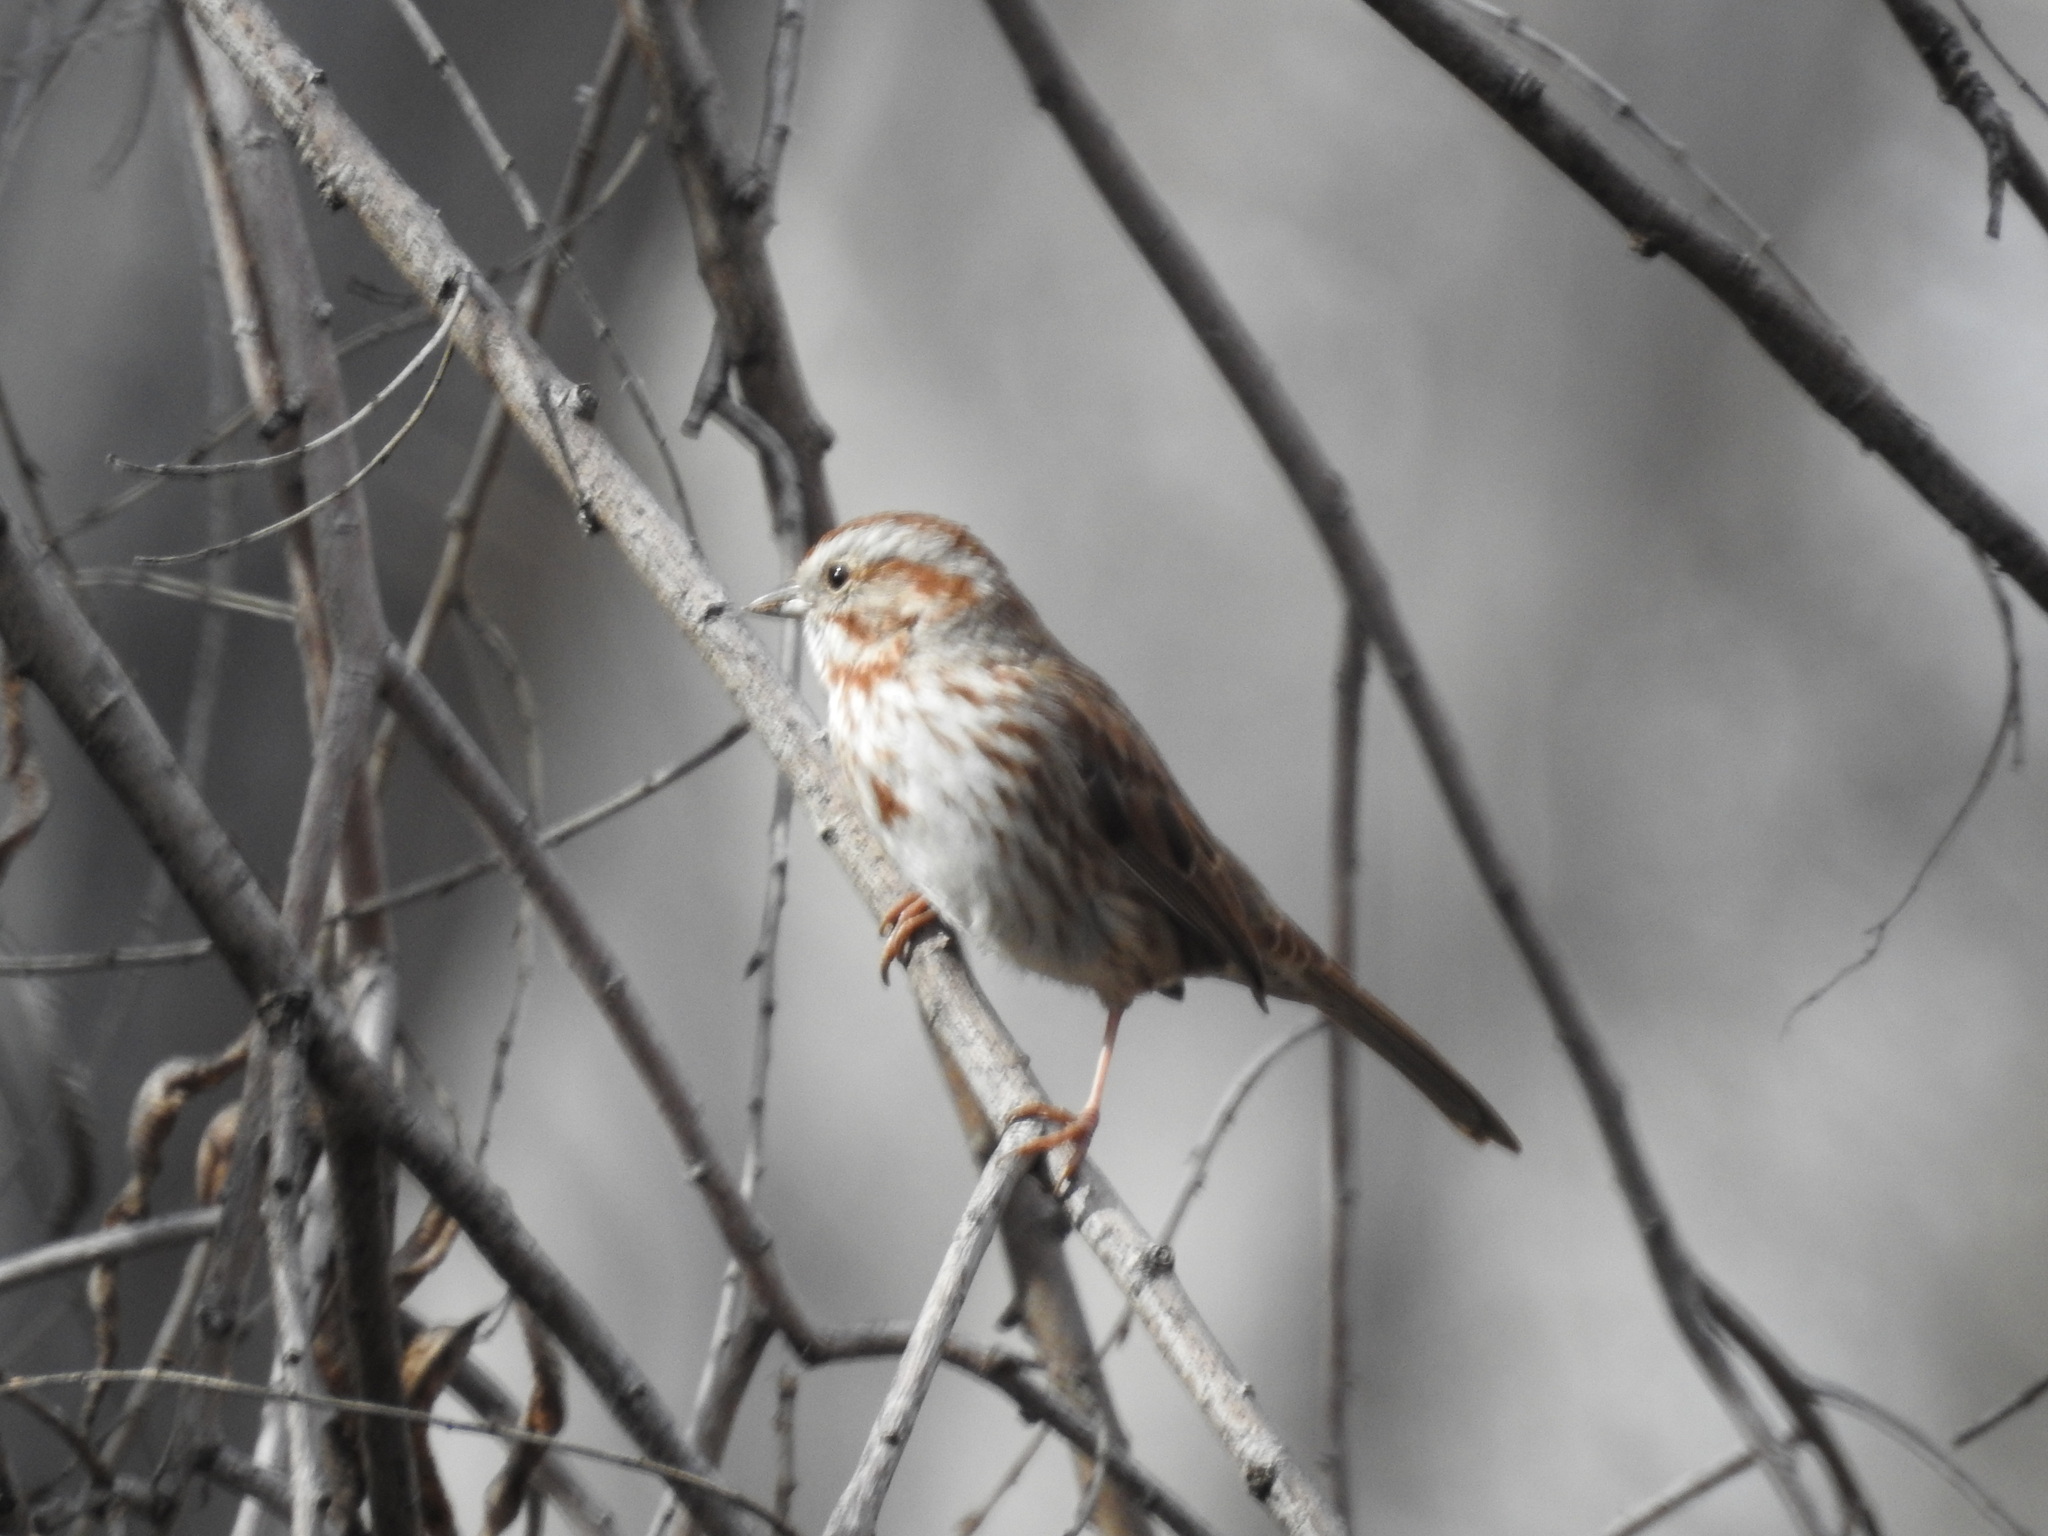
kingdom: Animalia
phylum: Chordata
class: Aves
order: Passeriformes
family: Passerellidae
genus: Melospiza
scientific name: Melospiza melodia
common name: Song sparrow
